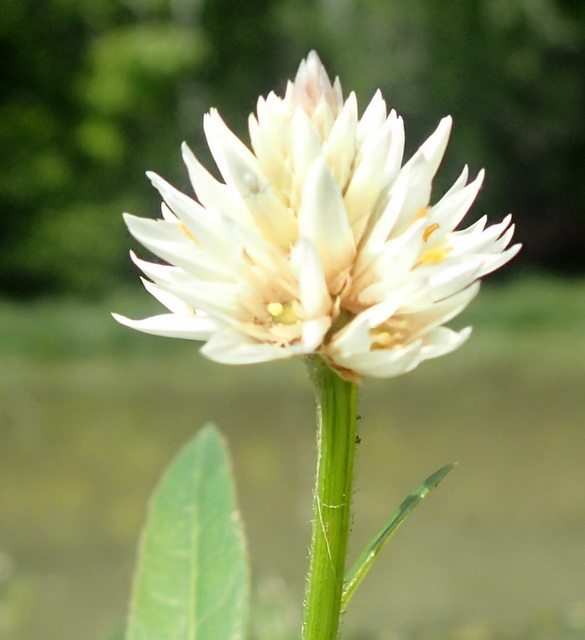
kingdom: Plantae
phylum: Tracheophyta
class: Magnoliopsida
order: Caryophyllales
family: Amaranthaceae
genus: Alternanthera
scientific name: Alternanthera philoxeroides
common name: Alligatorweed
